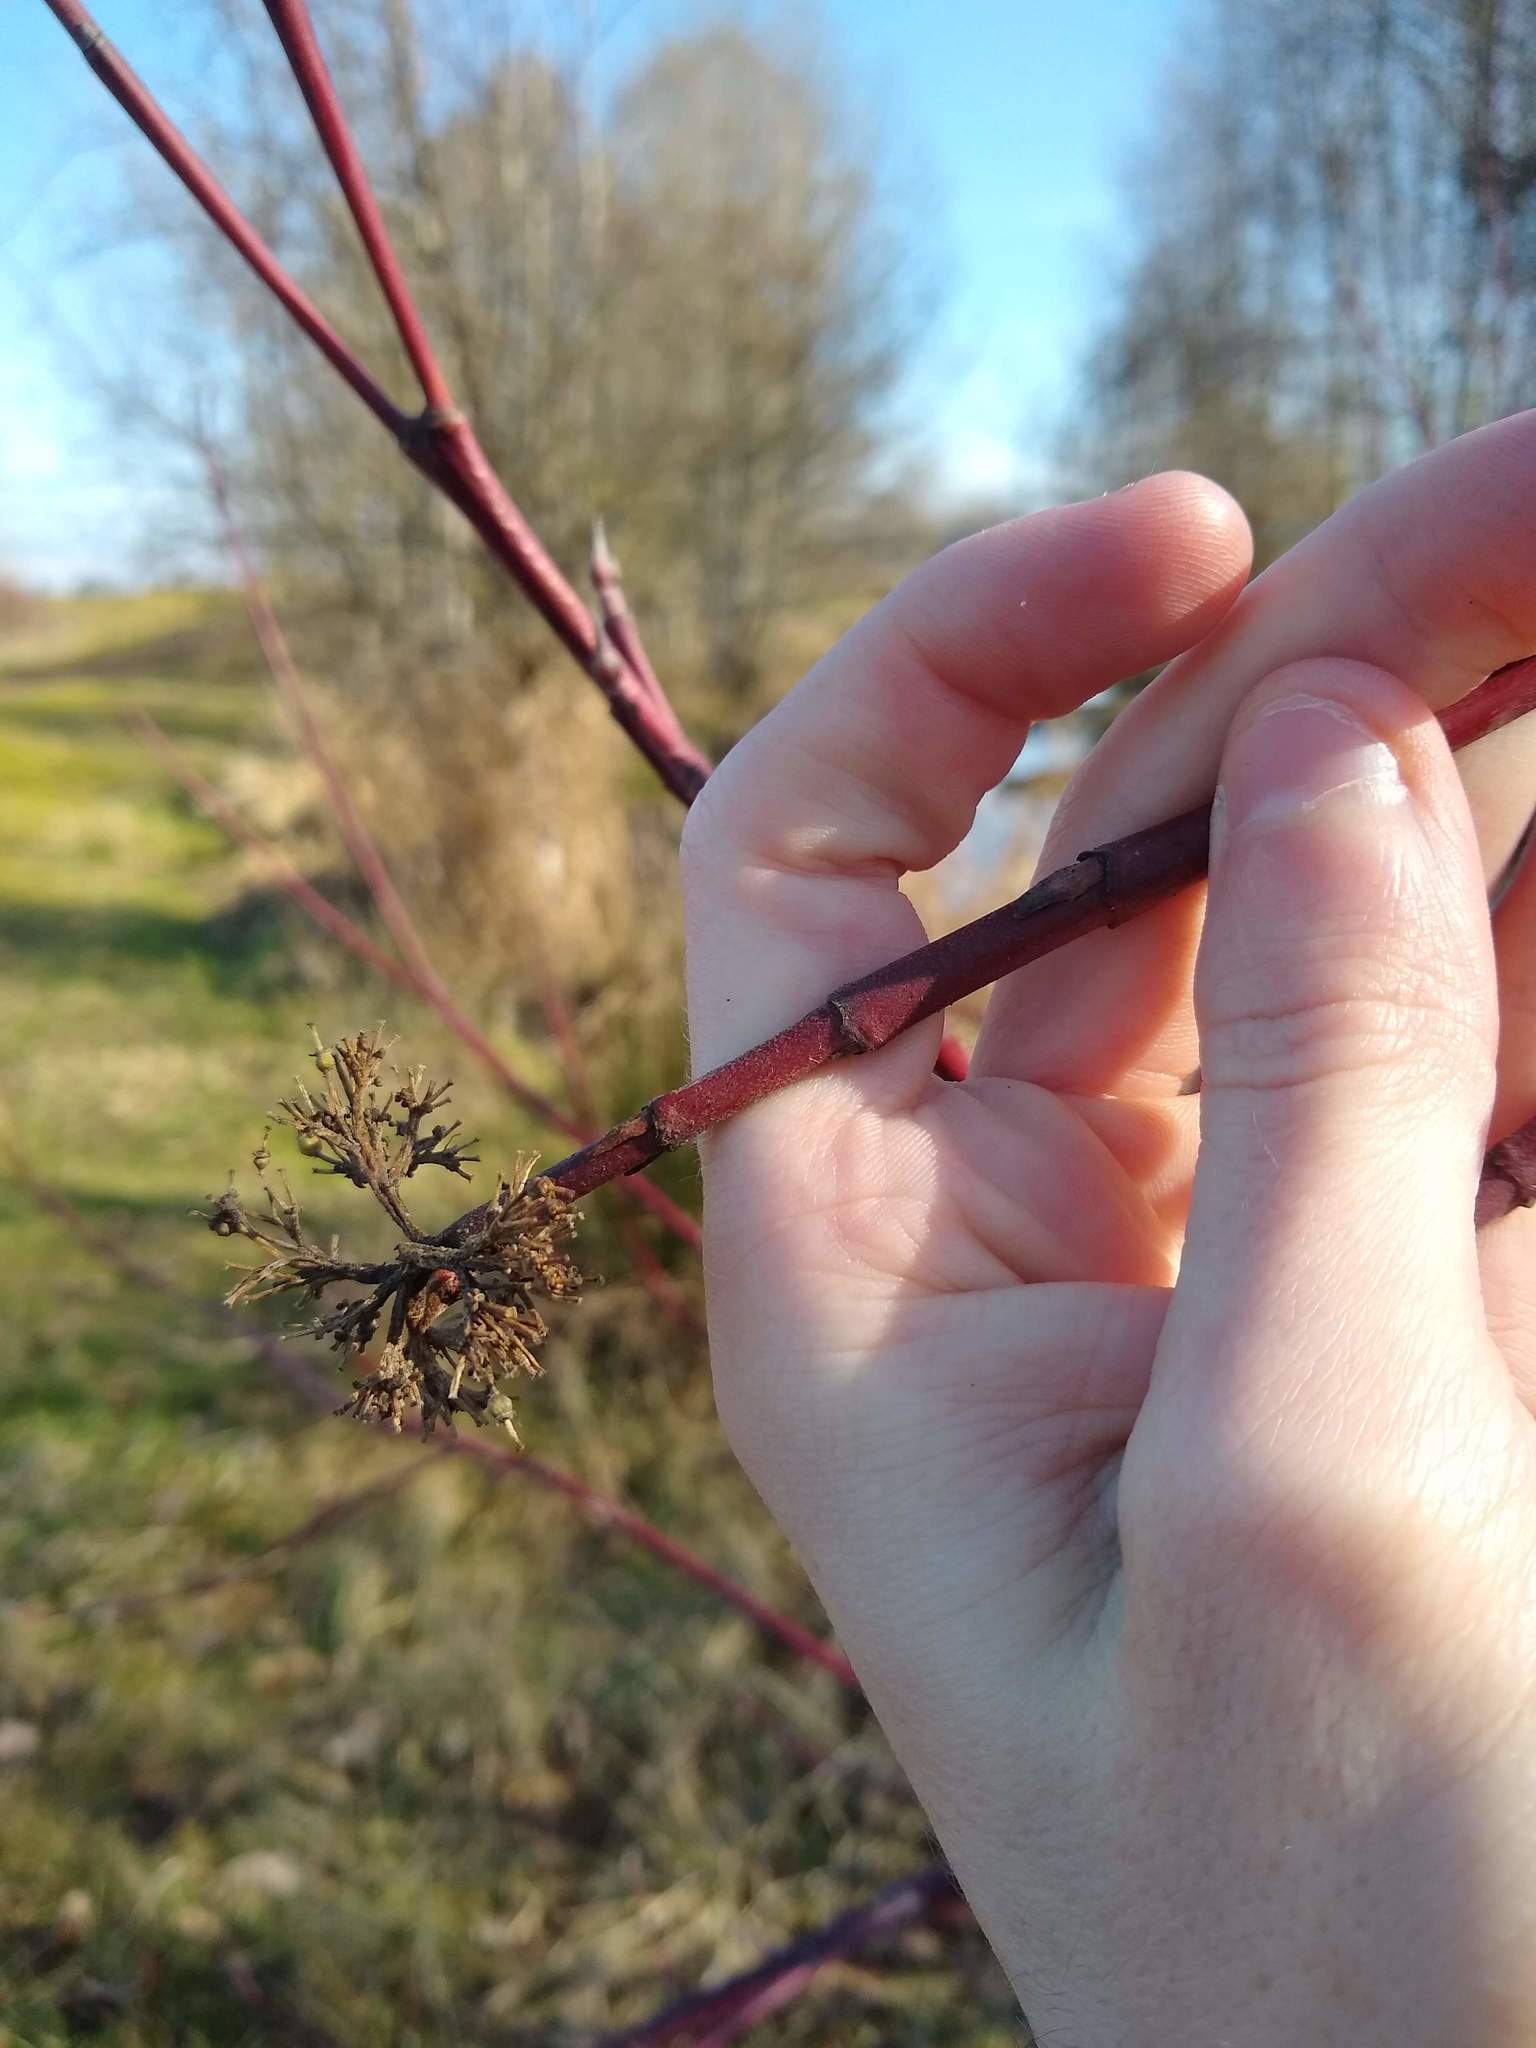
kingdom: Plantae
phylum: Tracheophyta
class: Magnoliopsida
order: Cornales
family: Cornaceae
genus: Cornus
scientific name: Cornus sericea
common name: Red-osier dogwood
